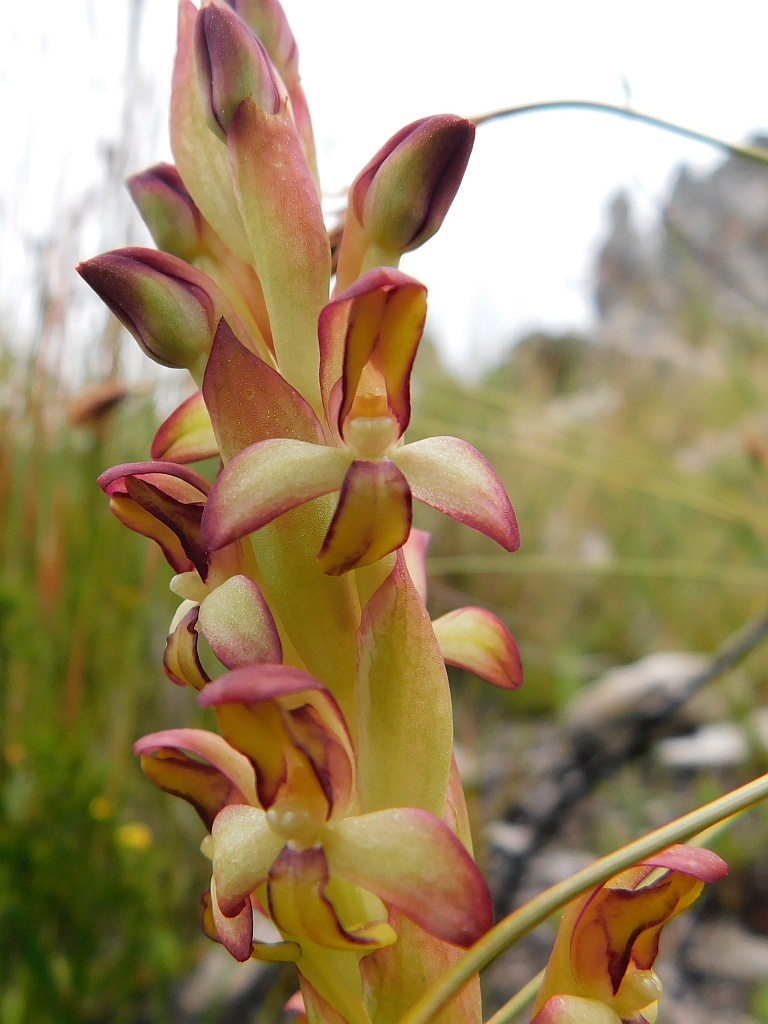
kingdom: Plantae
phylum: Tracheophyta
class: Liliopsida
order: Asparagales
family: Orchidaceae
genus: Disa
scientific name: Disa comosa
